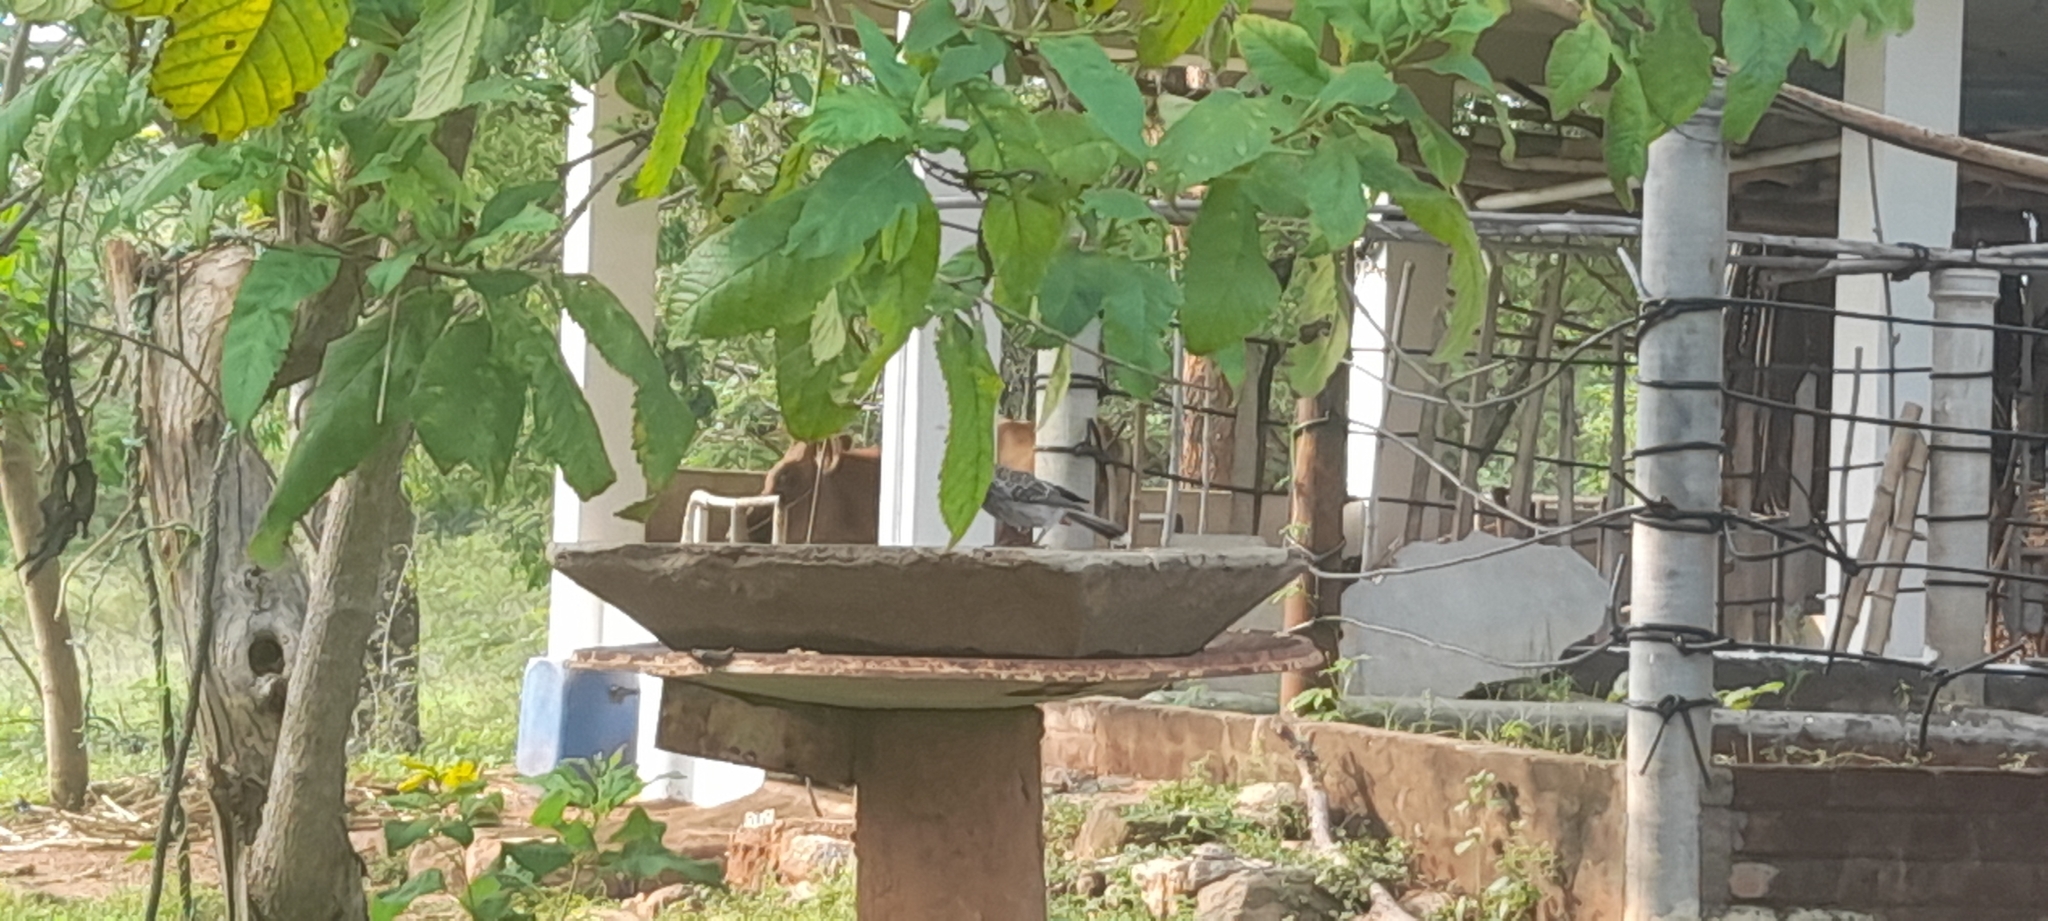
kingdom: Animalia
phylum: Chordata
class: Aves
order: Passeriformes
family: Pycnonotidae
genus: Pycnonotus
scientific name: Pycnonotus cafer
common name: Red-vented bulbul
